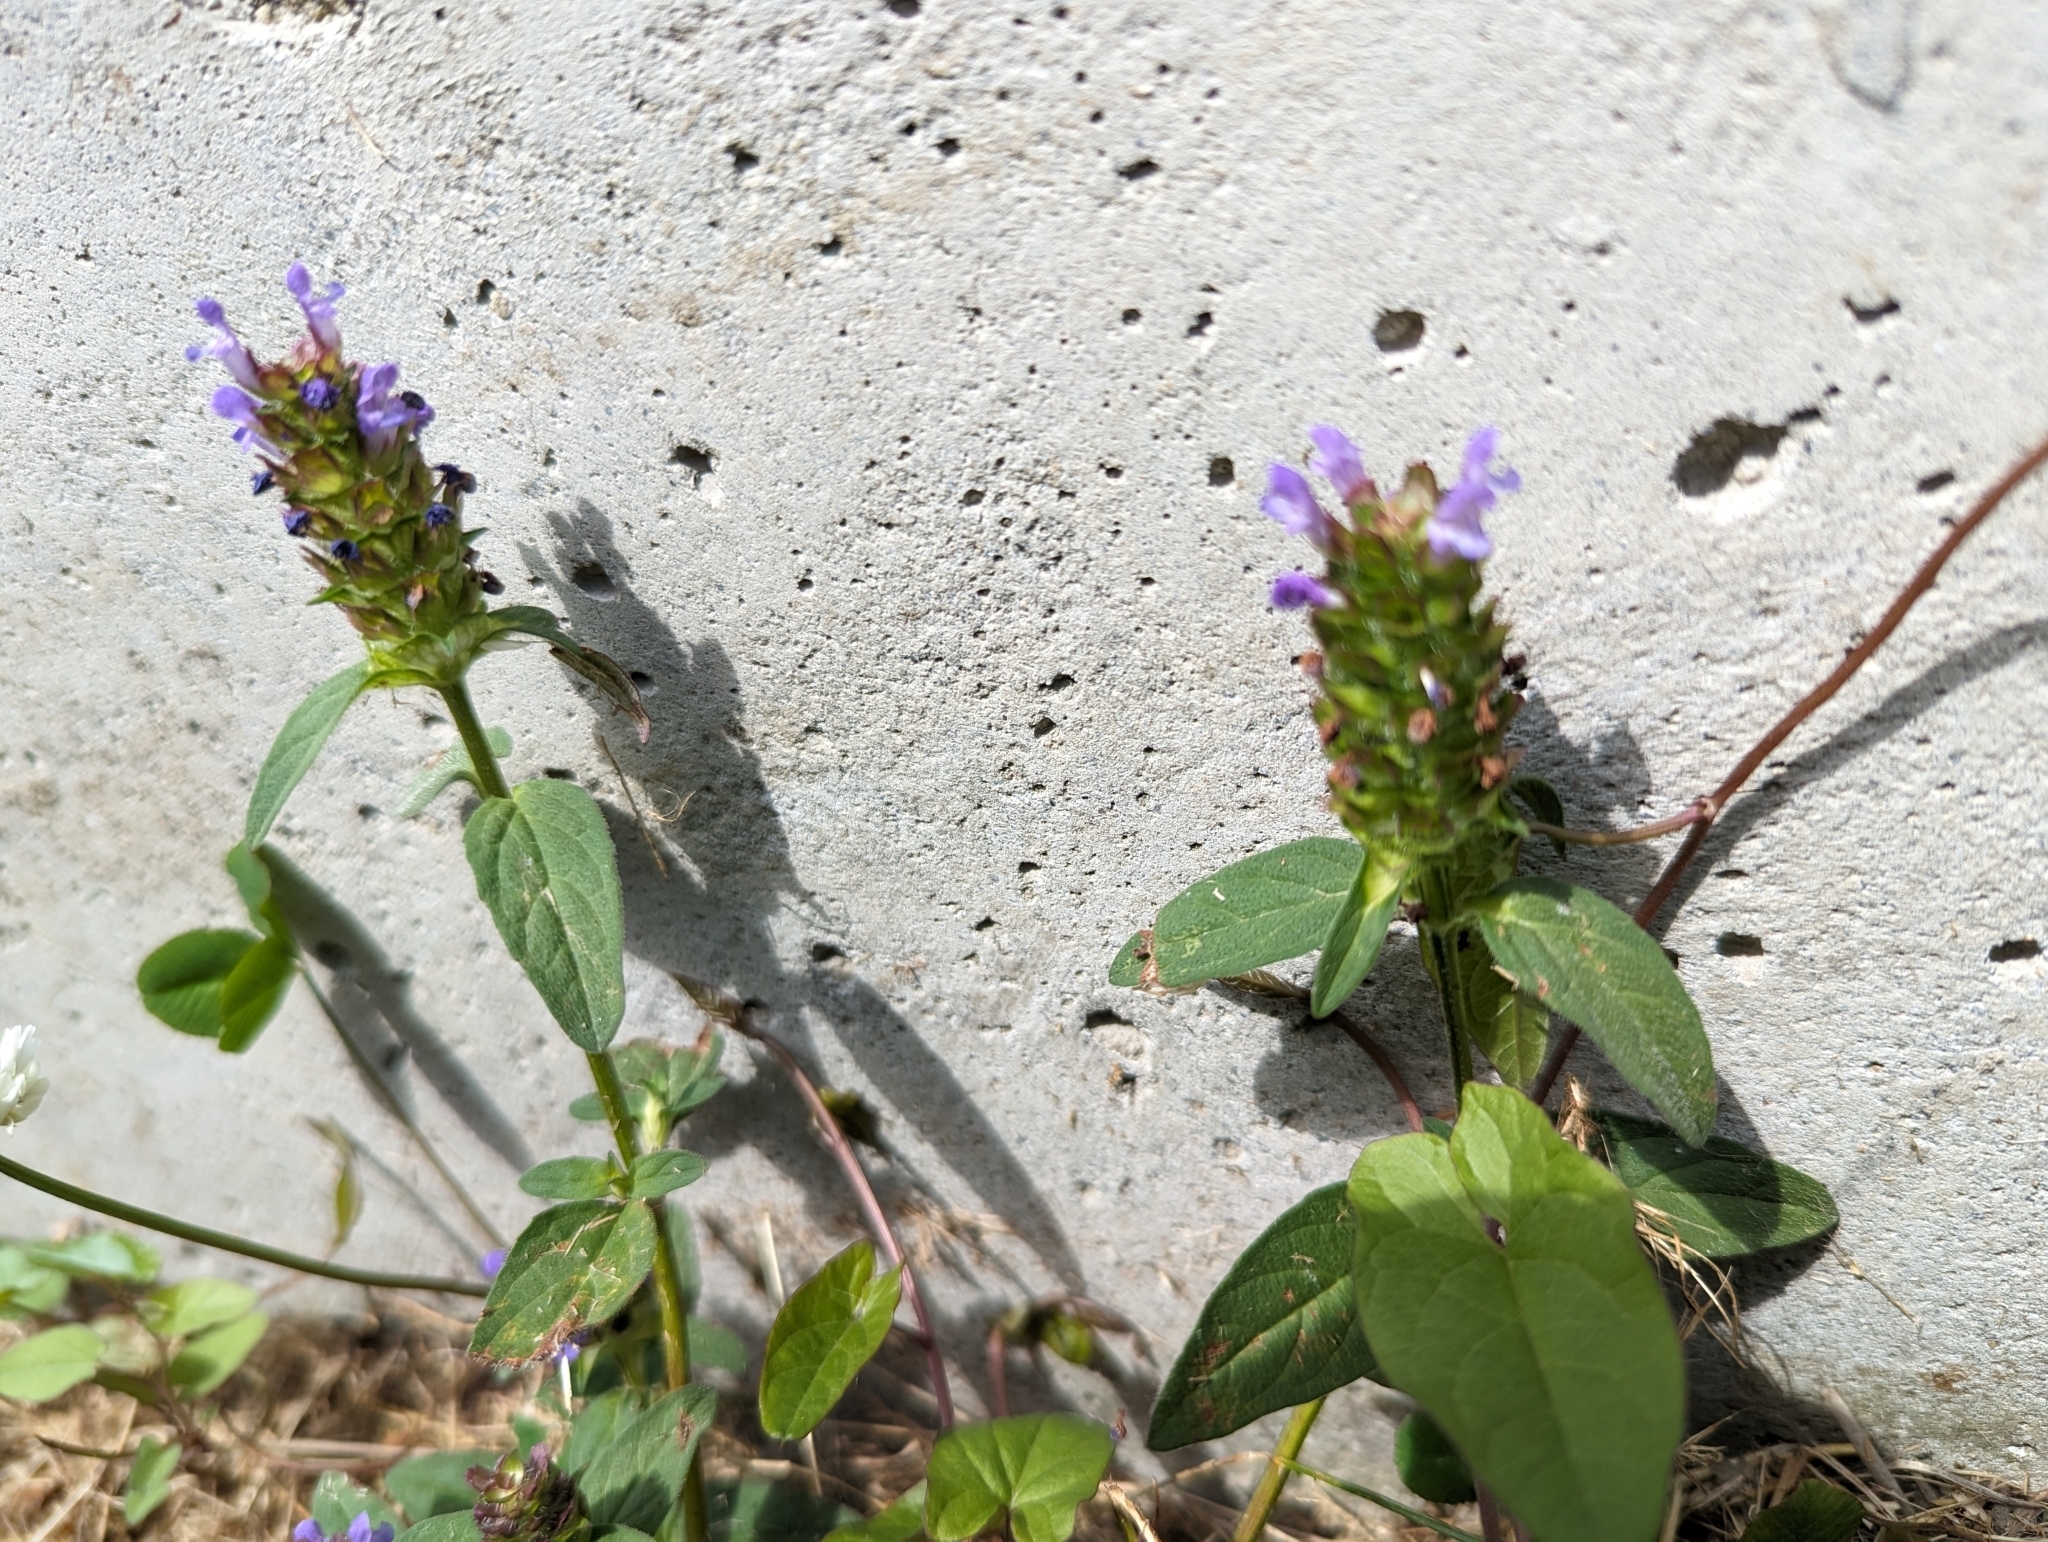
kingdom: Plantae
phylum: Tracheophyta
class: Magnoliopsida
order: Lamiales
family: Lamiaceae
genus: Prunella
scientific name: Prunella vulgaris
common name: Heal-all
